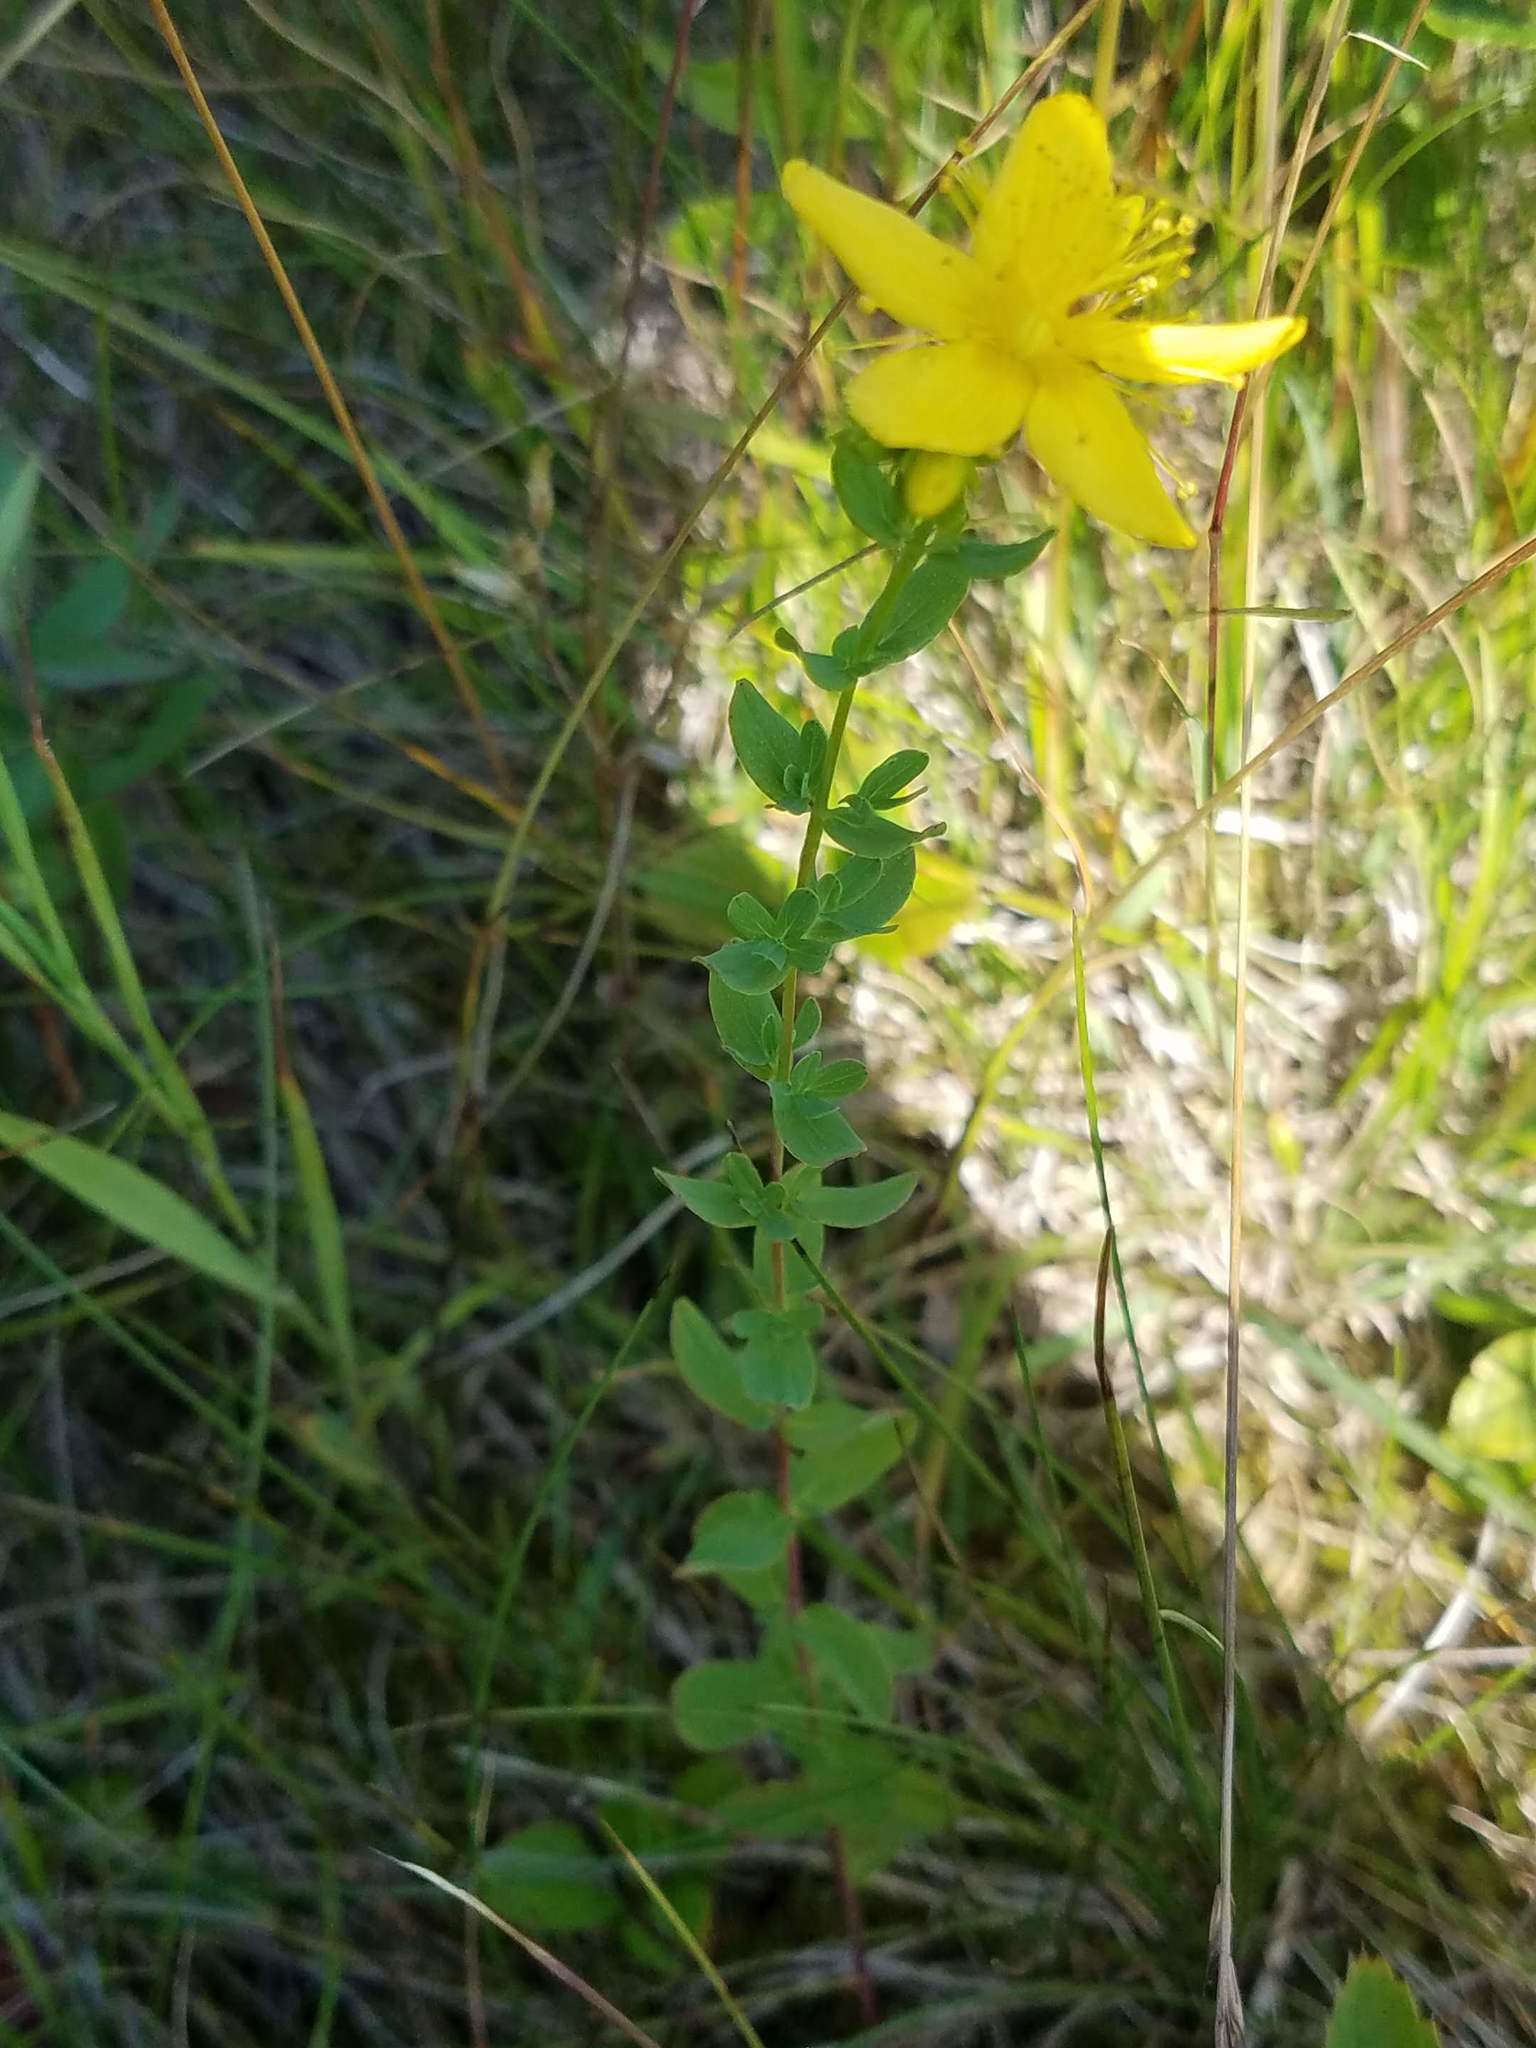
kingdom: Plantae
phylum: Tracheophyta
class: Magnoliopsida
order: Malpighiales
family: Hypericaceae
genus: Hypericum
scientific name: Hypericum perforatum
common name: Common st. johnswort
